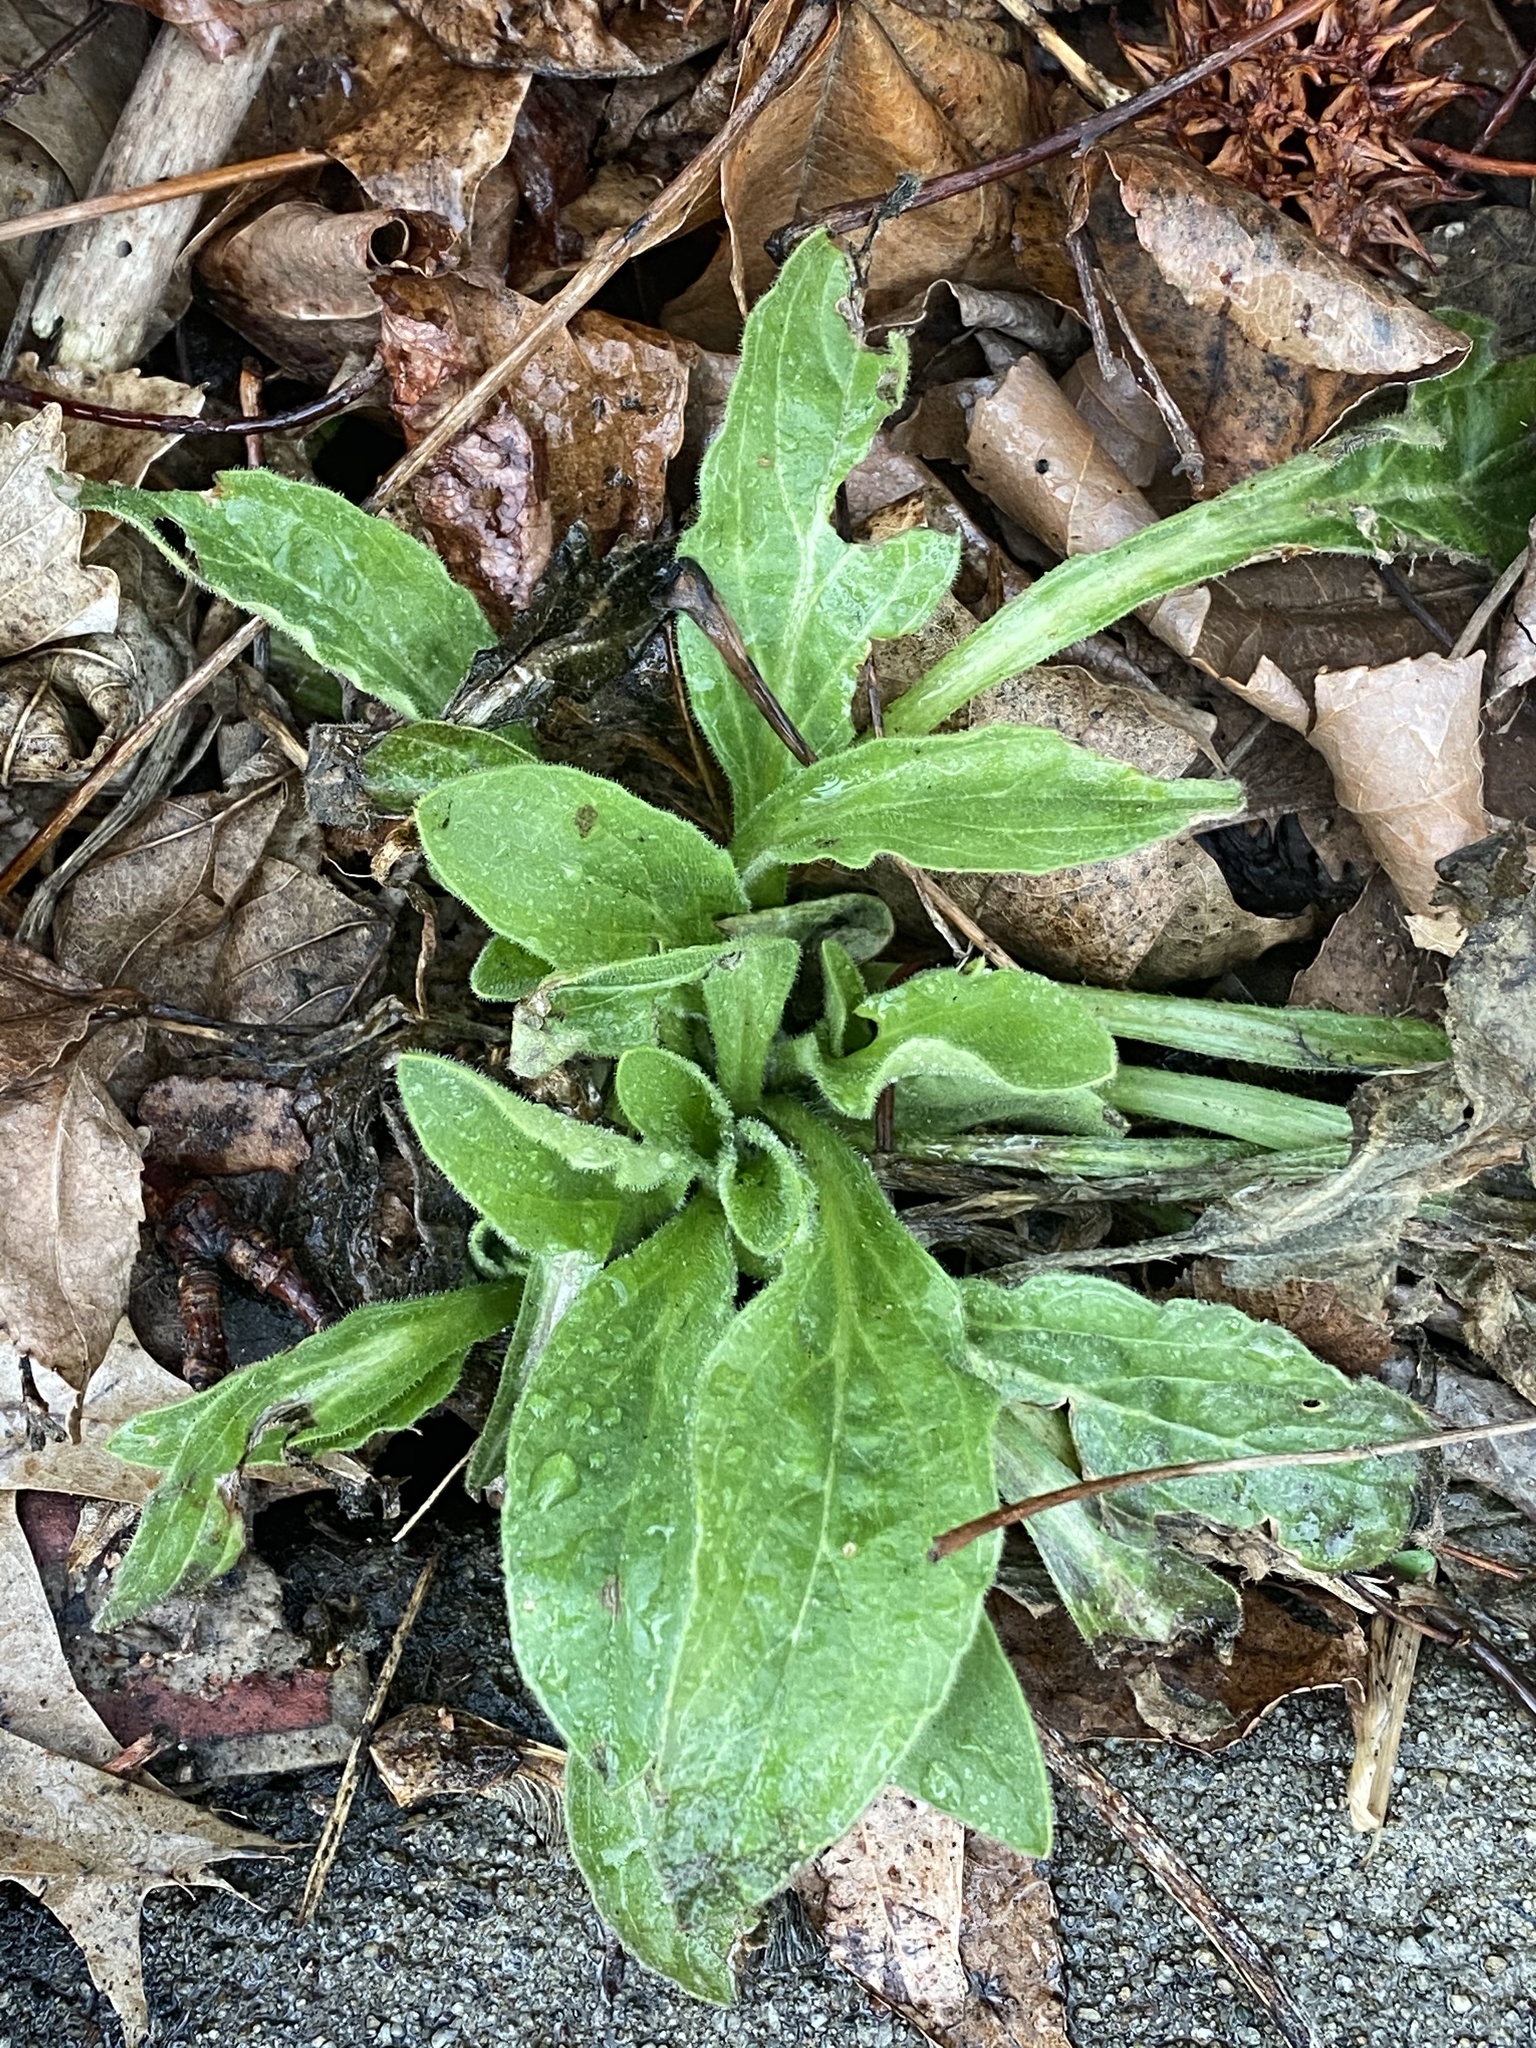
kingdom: Plantae
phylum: Tracheophyta
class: Magnoliopsida
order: Caryophyllales
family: Caryophyllaceae
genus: Silene
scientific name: Silene latifolia
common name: White campion
